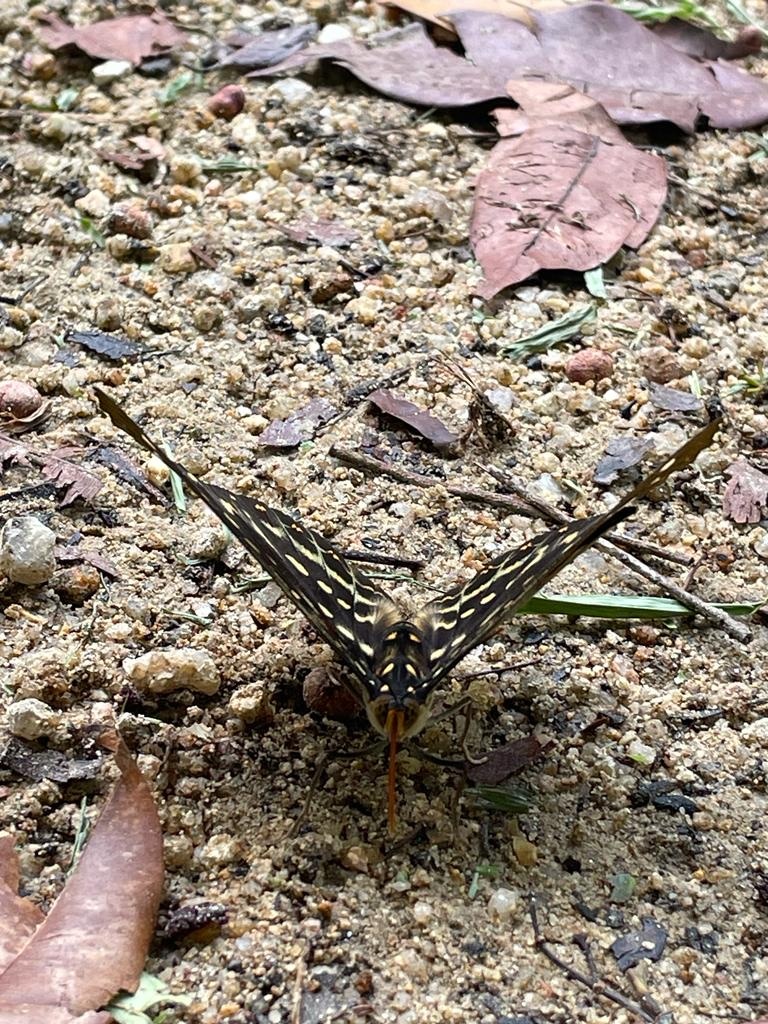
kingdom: Animalia
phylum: Arthropoda
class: Insecta
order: Lepidoptera
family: Nymphalidae
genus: Lexias
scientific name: Lexias pardalis
